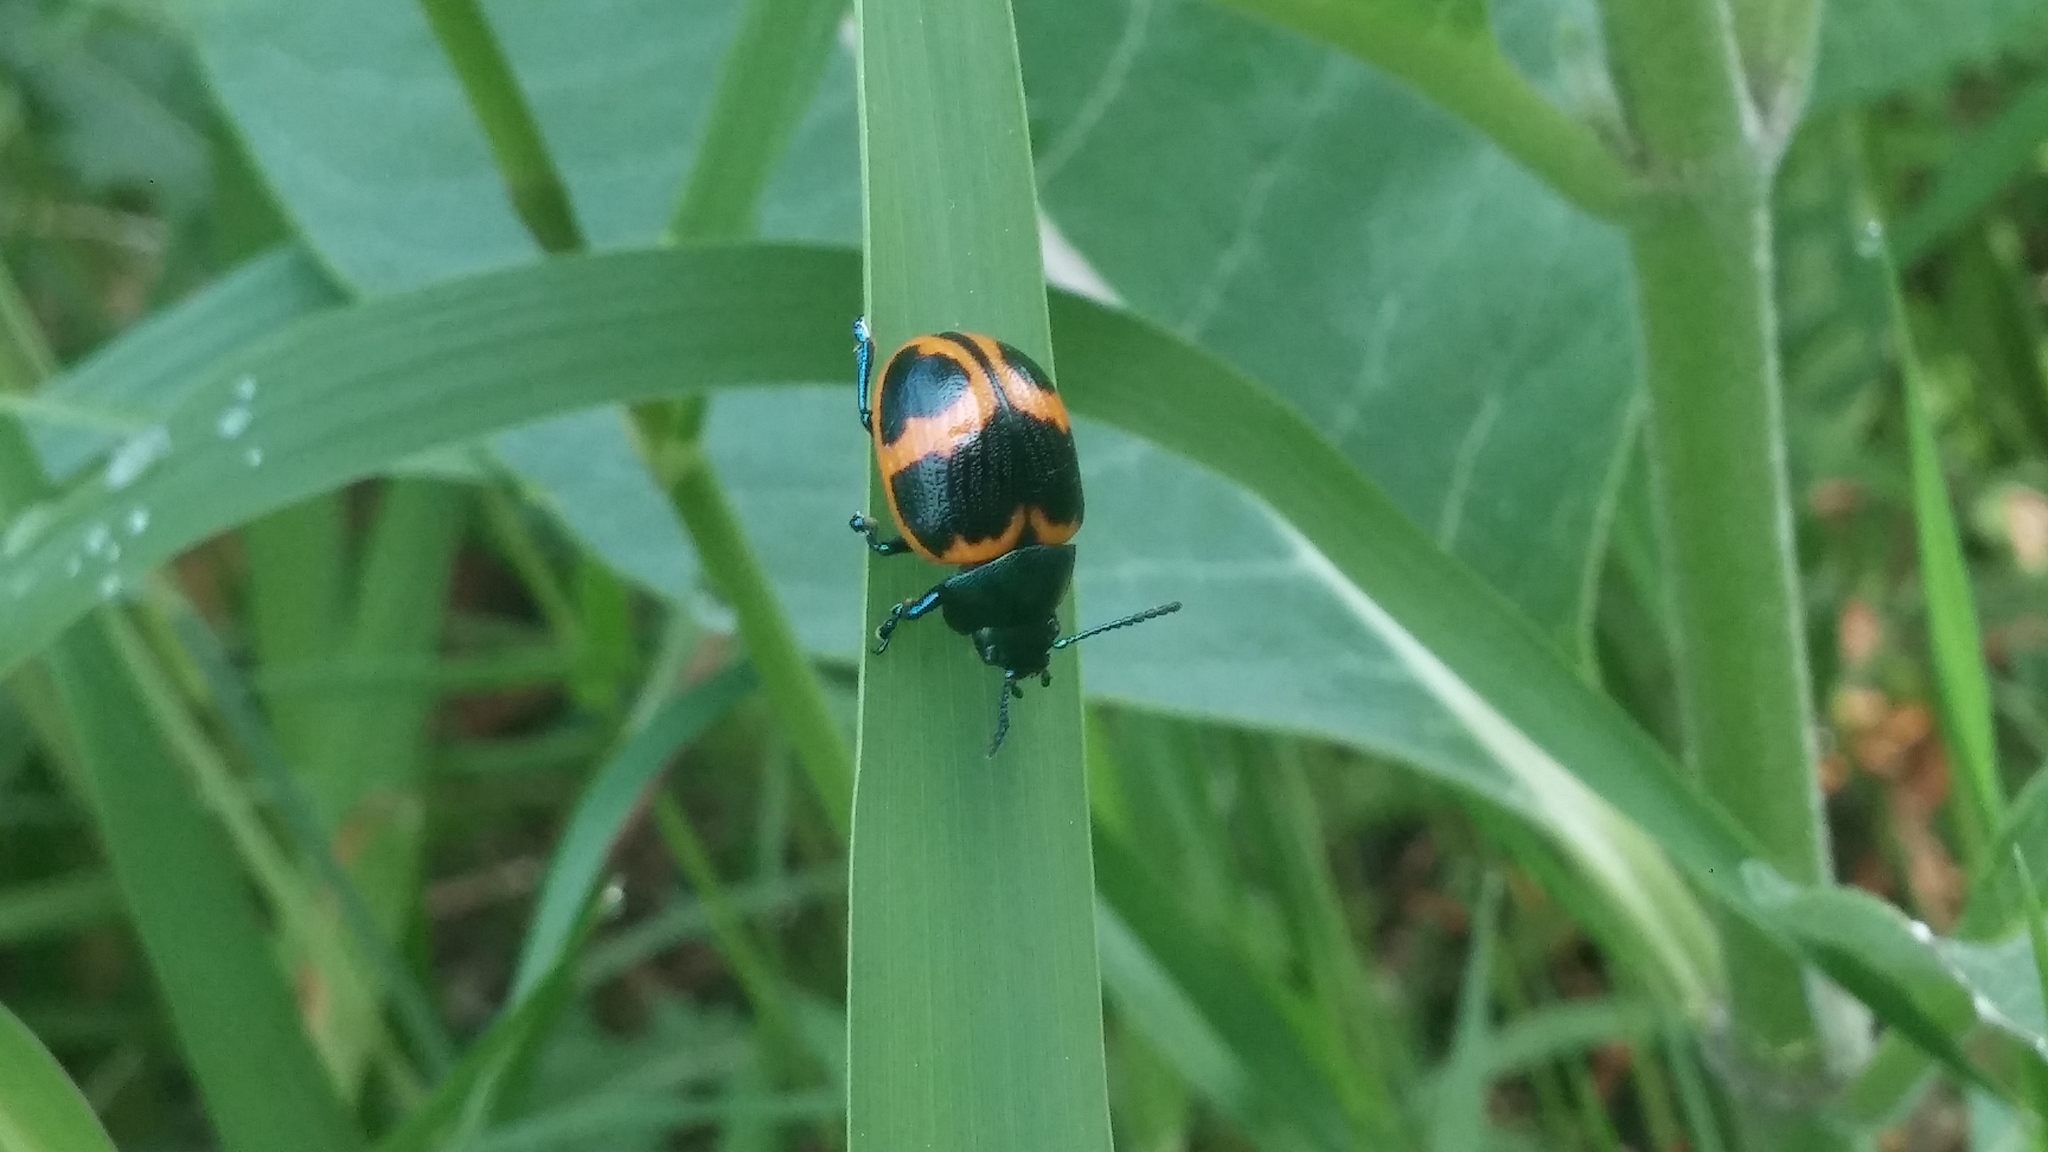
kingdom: Animalia
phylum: Arthropoda
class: Insecta
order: Coleoptera
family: Chrysomelidae
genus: Labidomera
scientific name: Labidomera clivicollis
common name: Swamp milkweed leaf beetle
